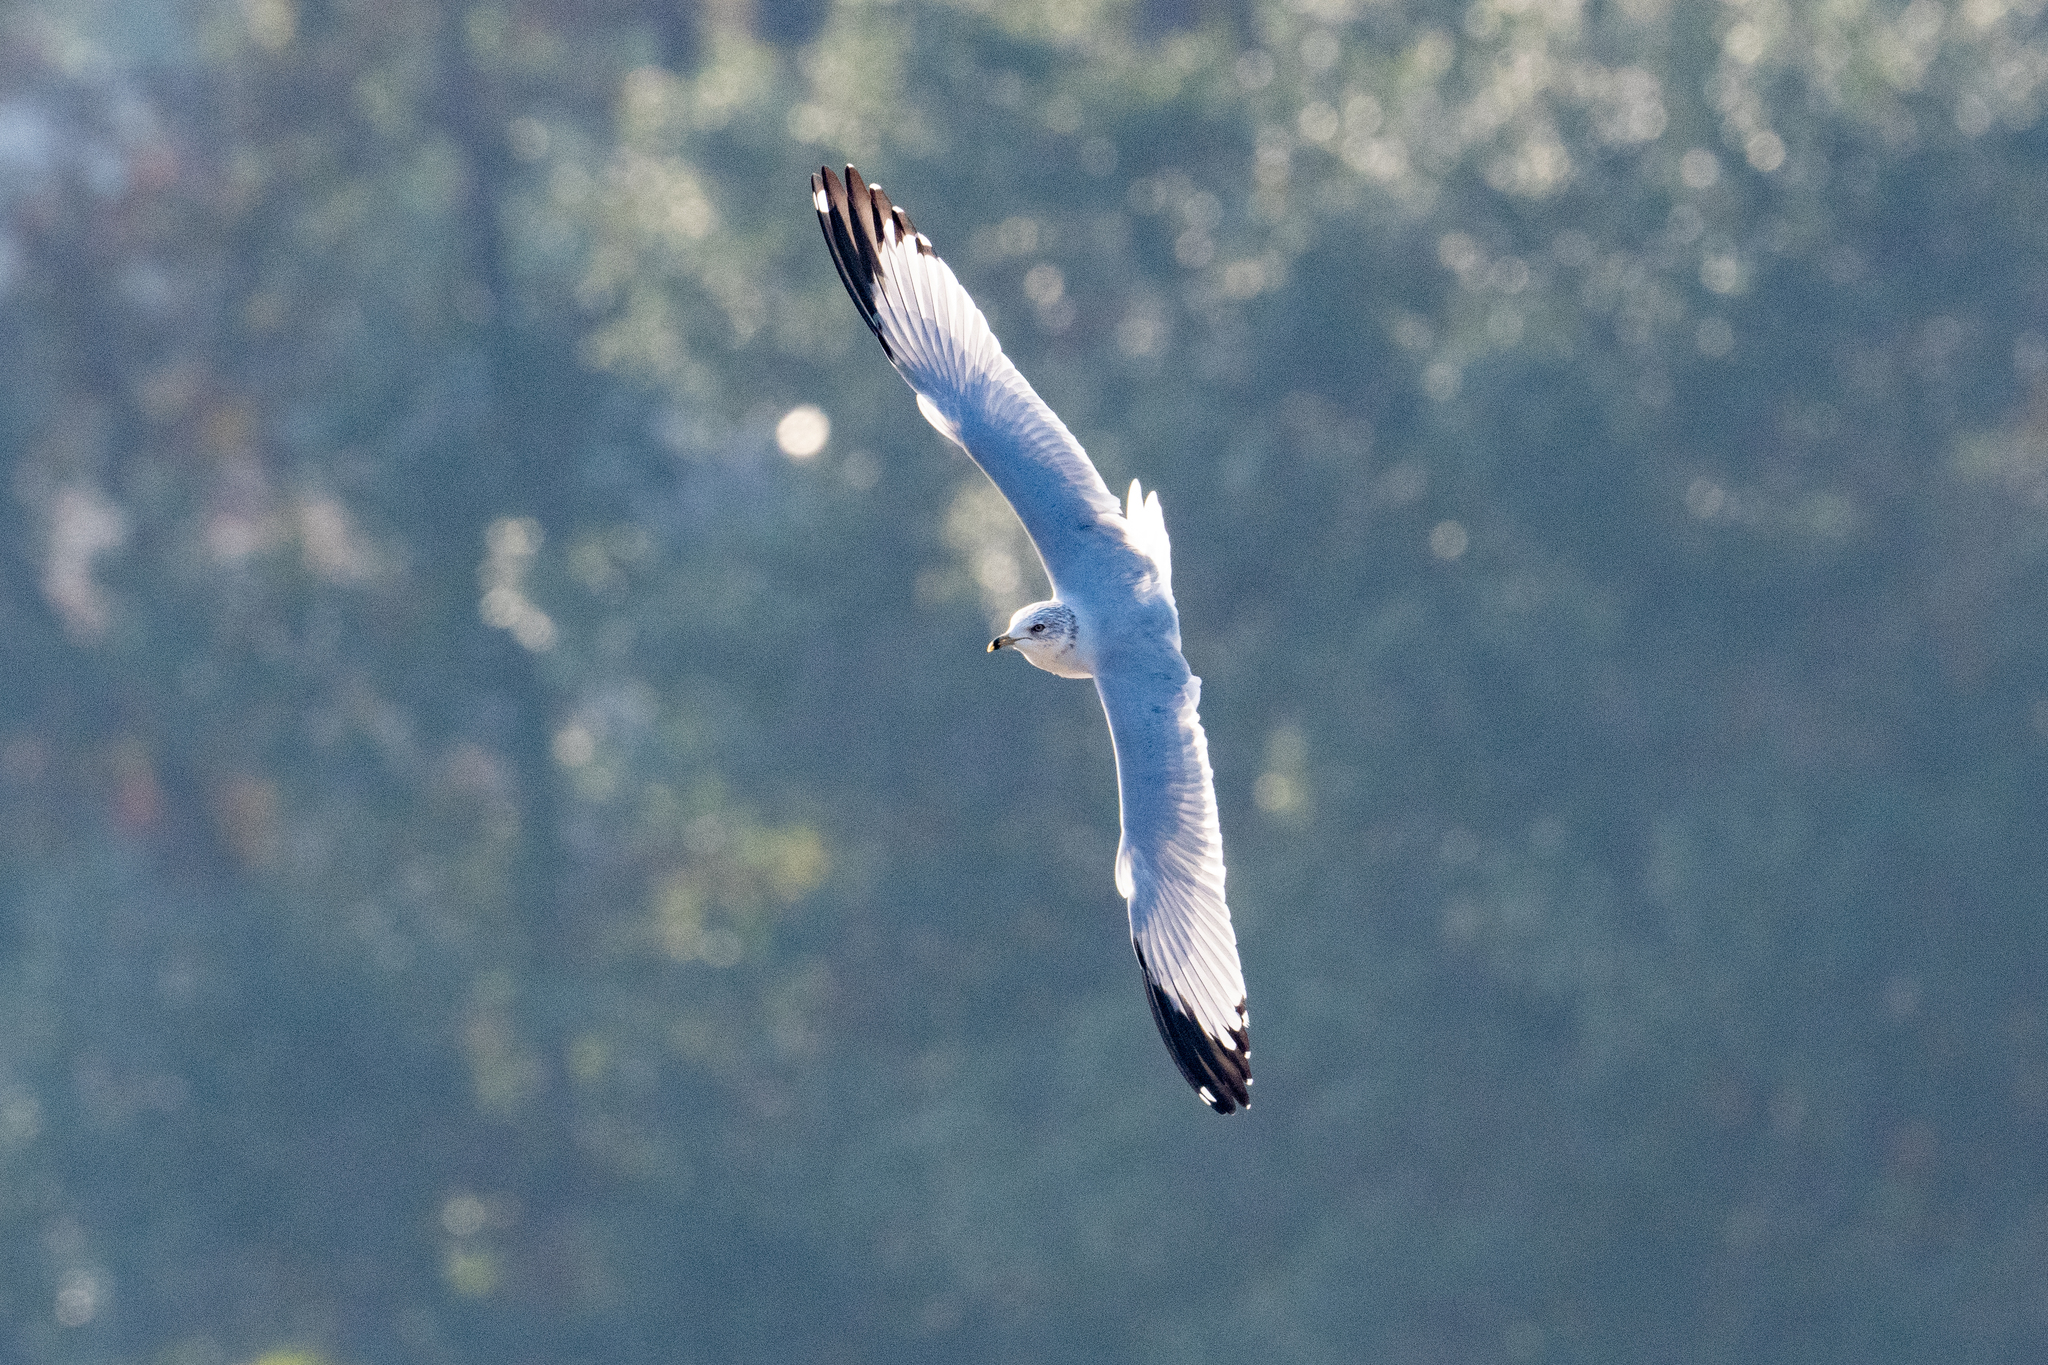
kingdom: Animalia
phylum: Chordata
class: Aves
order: Charadriiformes
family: Laridae
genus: Larus
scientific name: Larus delawarensis
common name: Ring-billed gull
